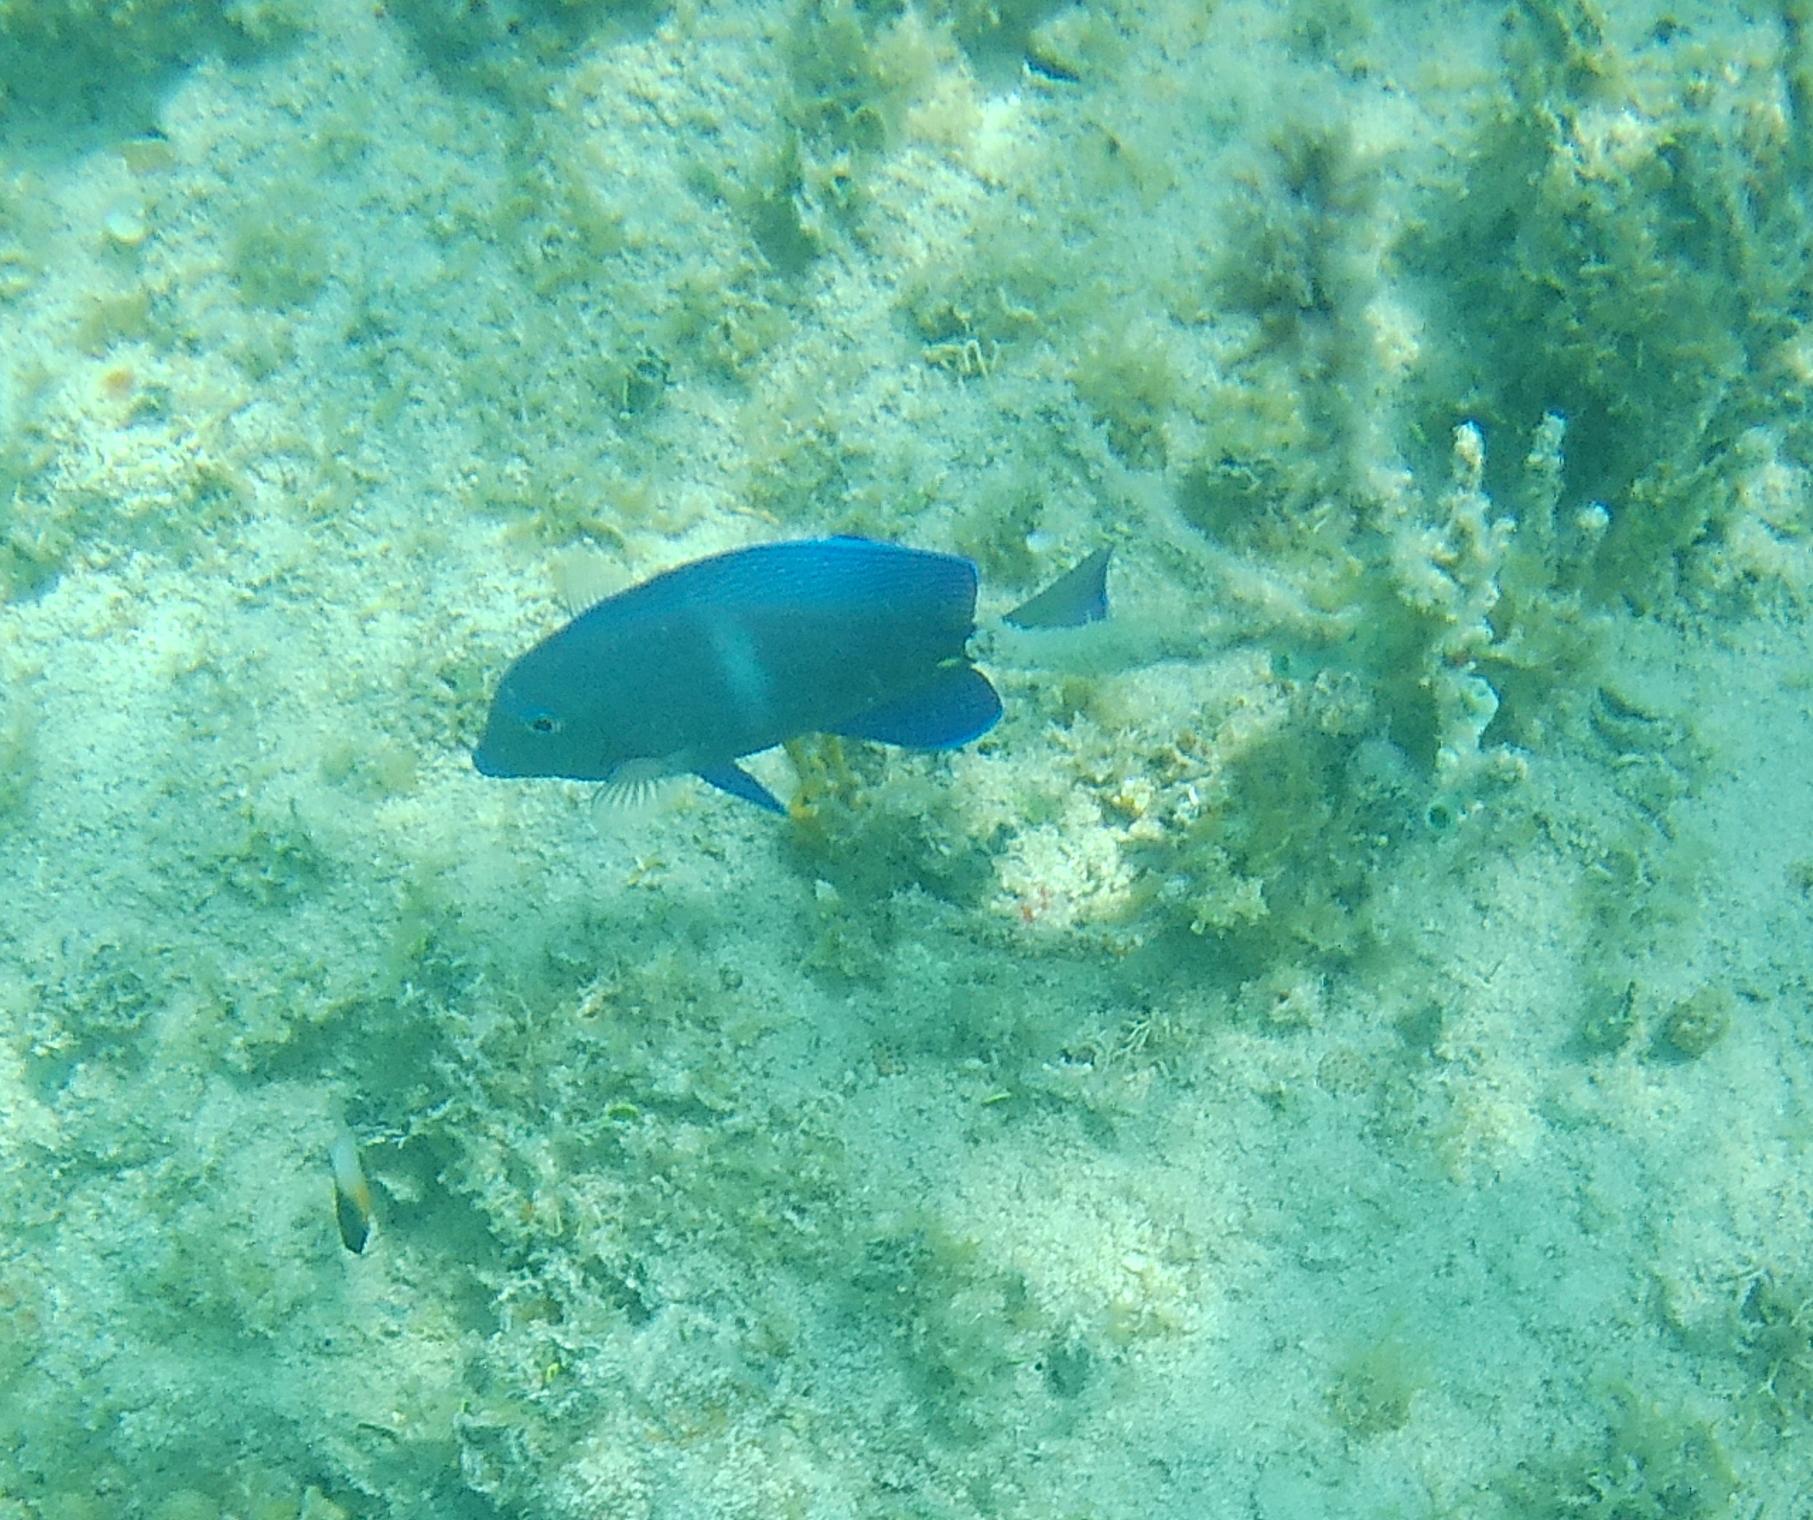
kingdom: Animalia
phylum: Chordata
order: Perciformes
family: Acanthuridae
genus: Acanthurus
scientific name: Acanthurus coeruleus
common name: Blue tang
